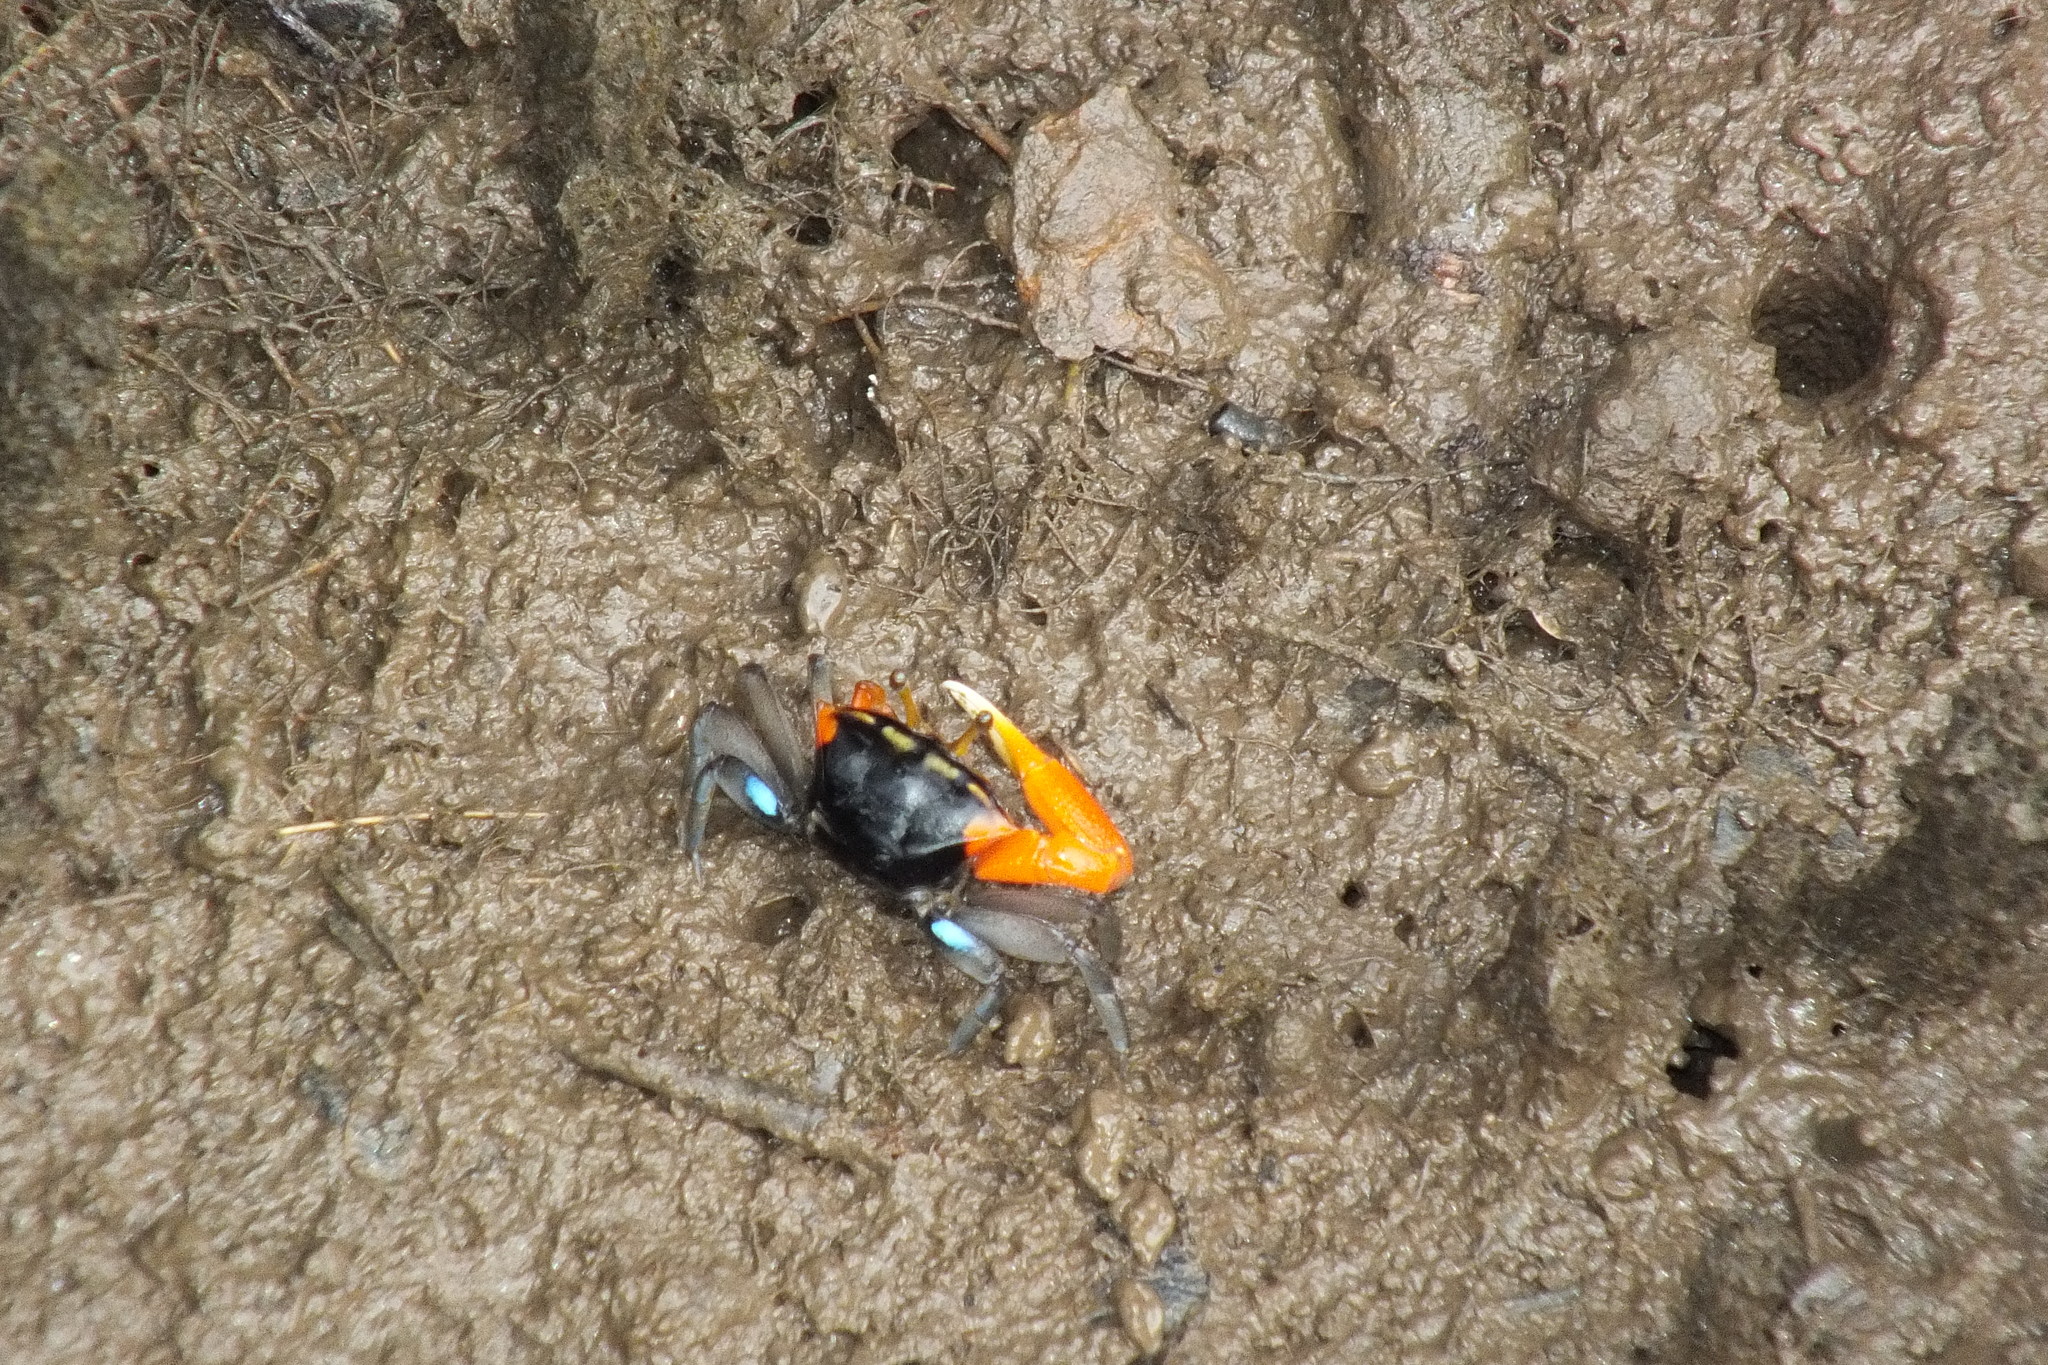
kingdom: Animalia
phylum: Arthropoda
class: Malacostraca
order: Decapoda
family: Ocypodidae
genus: Tubuca
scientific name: Tubuca coarctata
